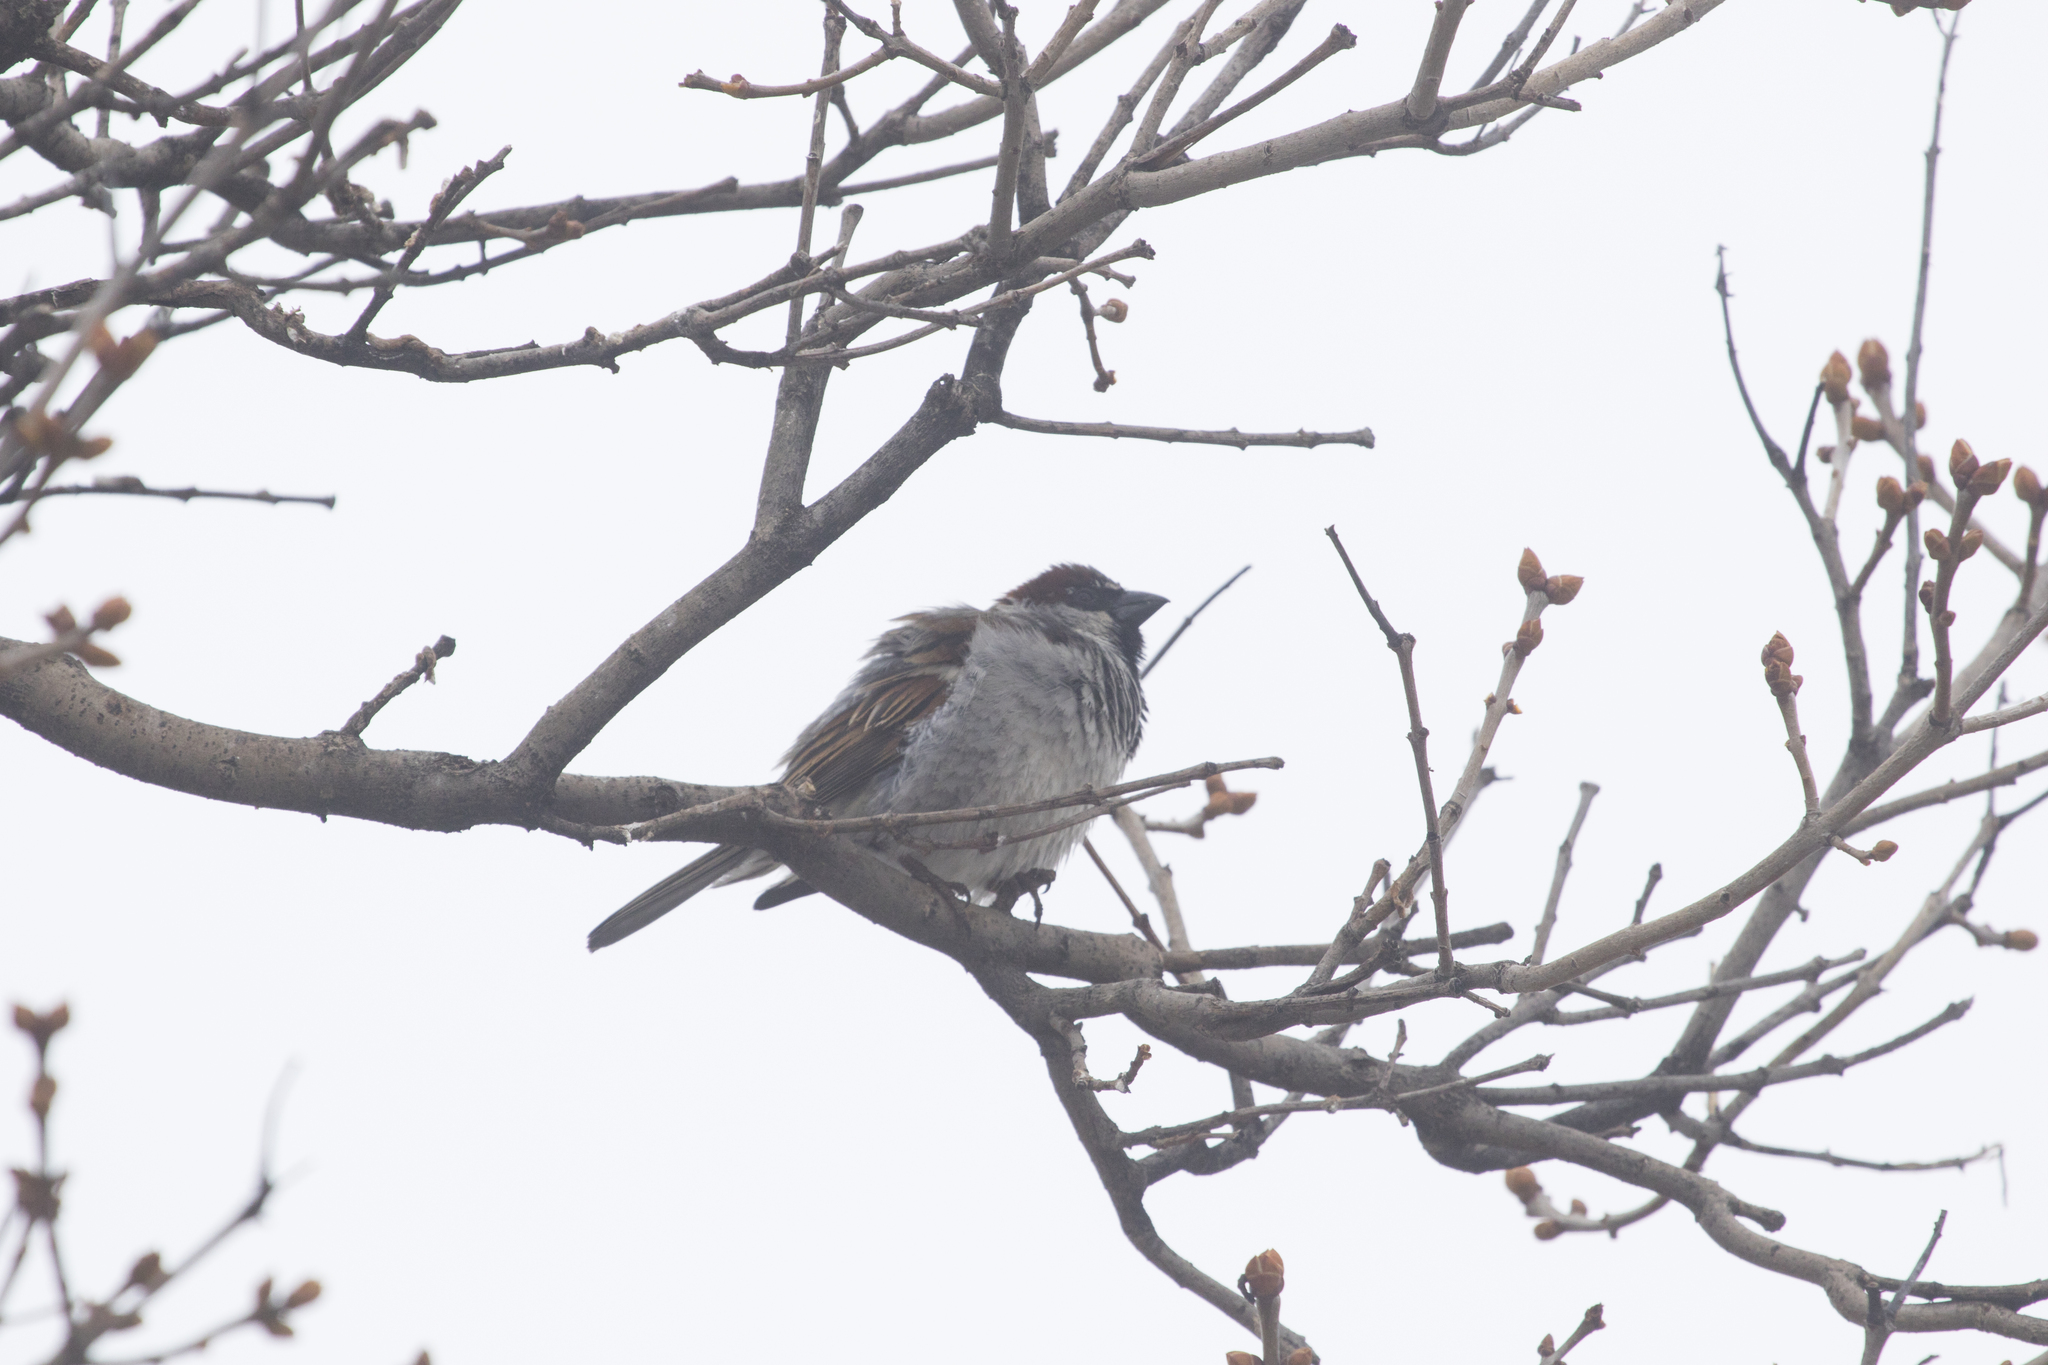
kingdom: Animalia
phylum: Chordata
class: Aves
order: Passeriformes
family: Passeridae
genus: Passer
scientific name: Passer domesticus
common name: House sparrow
